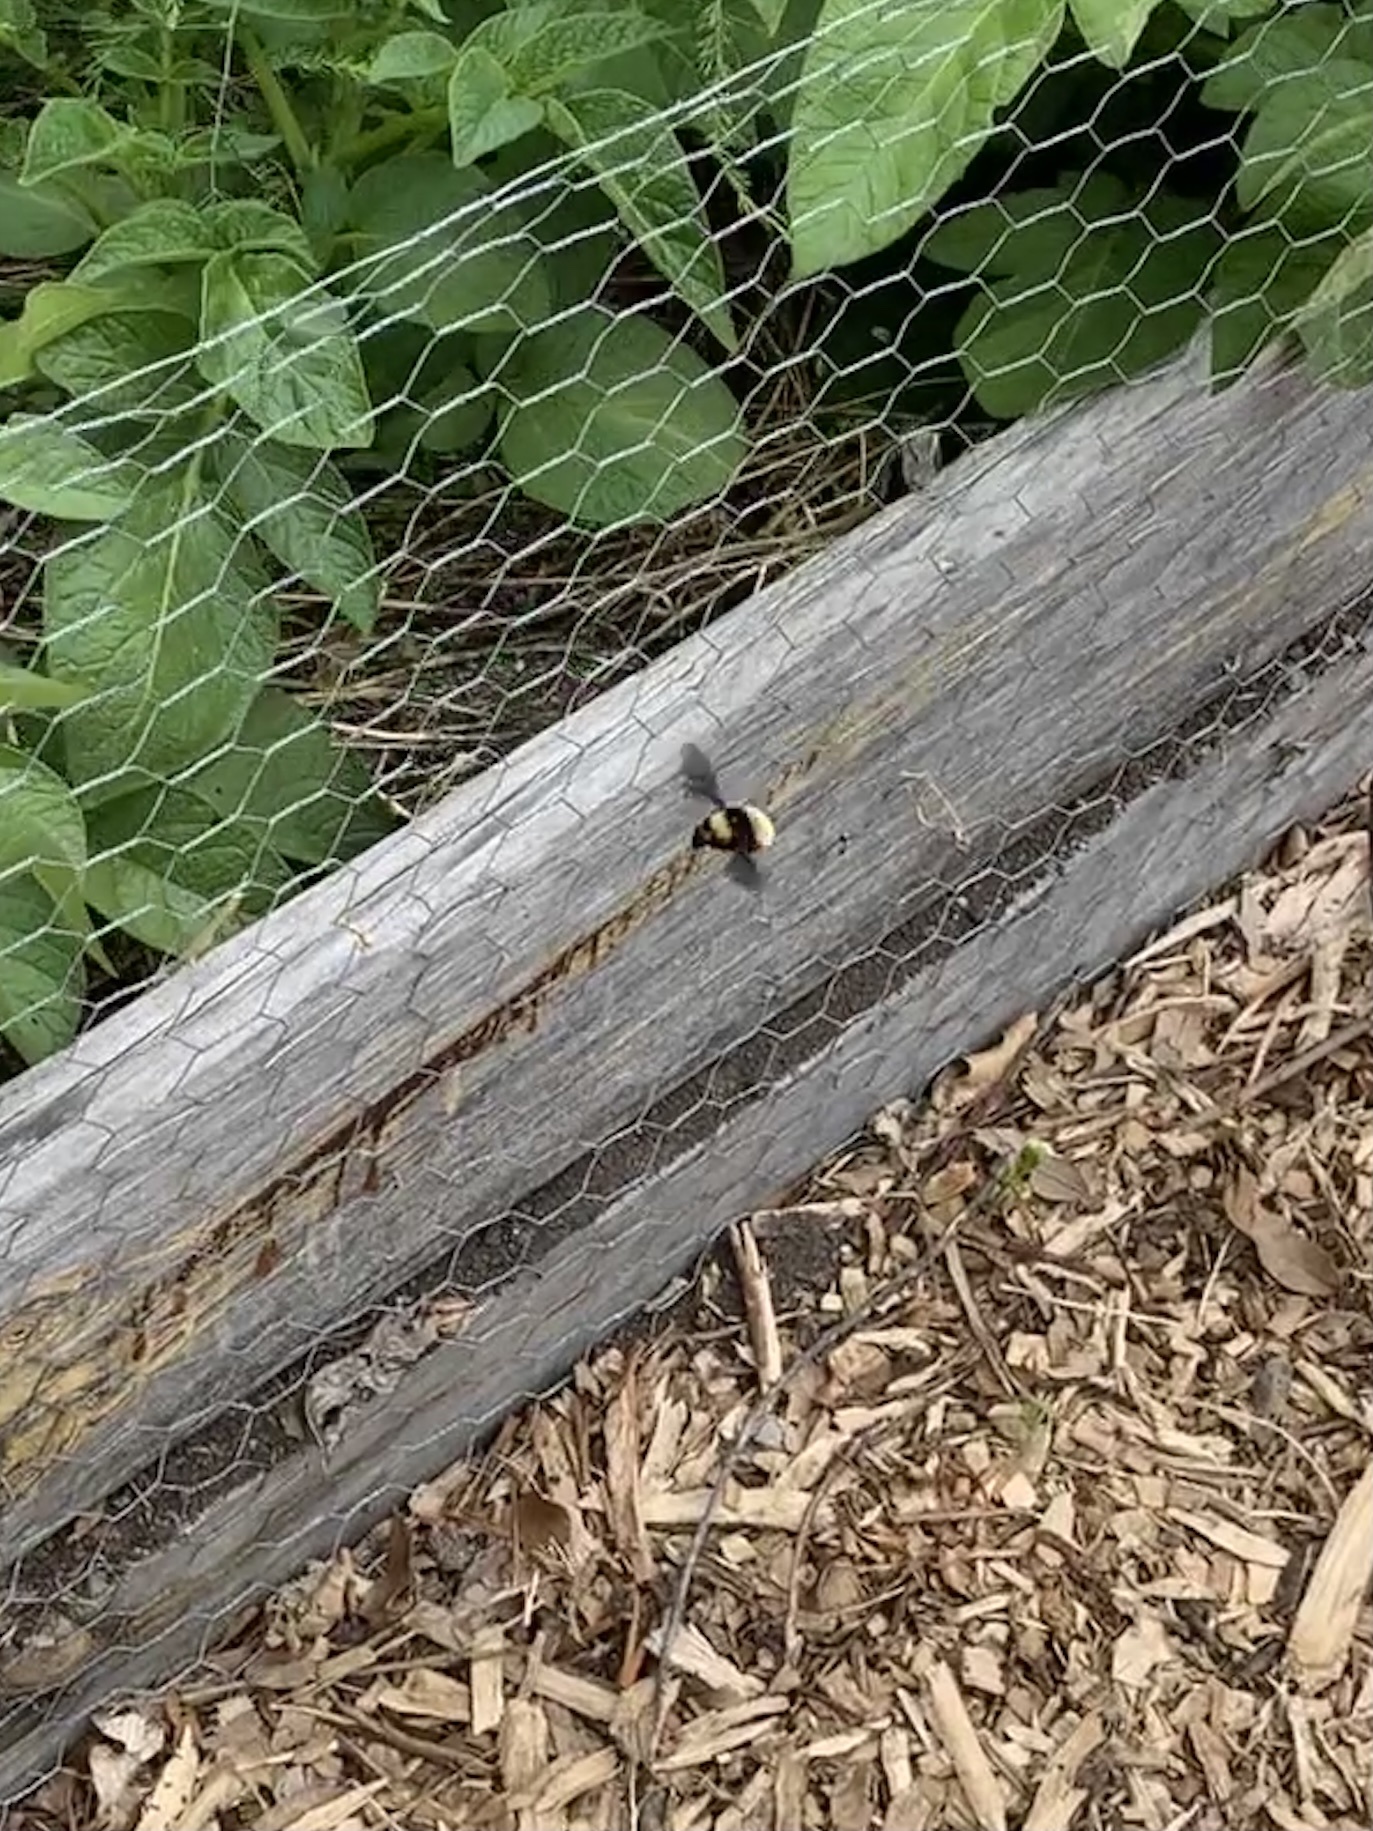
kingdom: Animalia
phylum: Arthropoda
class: Insecta
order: Hymenoptera
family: Apidae
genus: Bombus
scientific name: Bombus pensylvanicus
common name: Bumble bee
